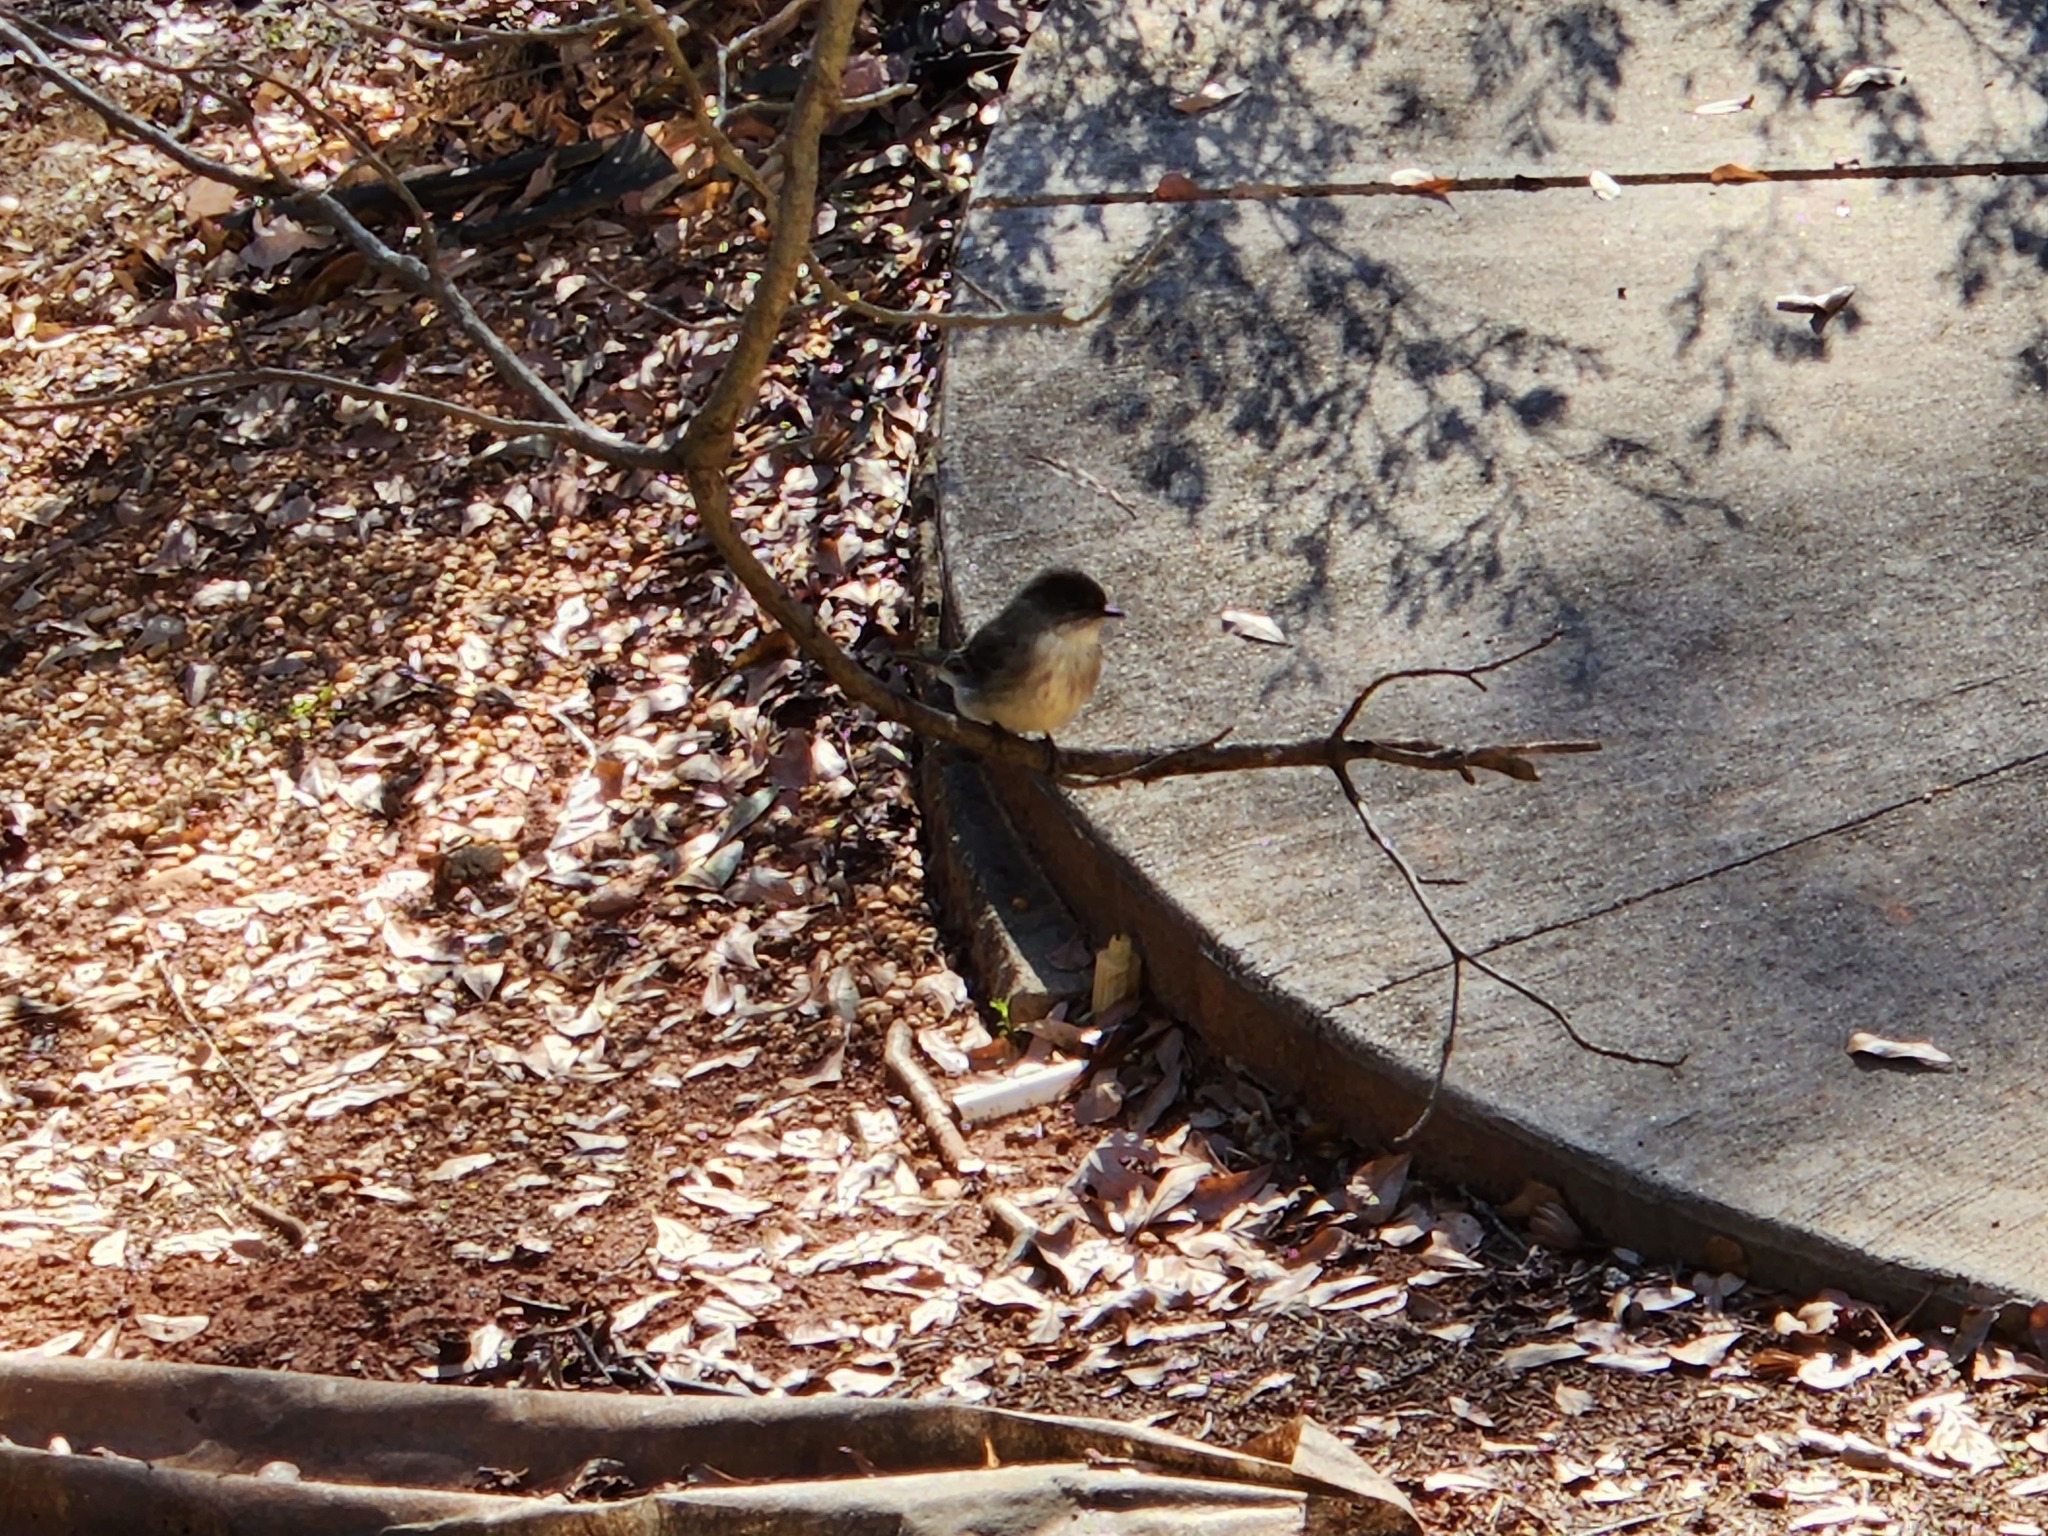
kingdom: Animalia
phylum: Chordata
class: Aves
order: Passeriformes
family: Tyrannidae
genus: Sayornis
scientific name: Sayornis phoebe
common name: Eastern phoebe
